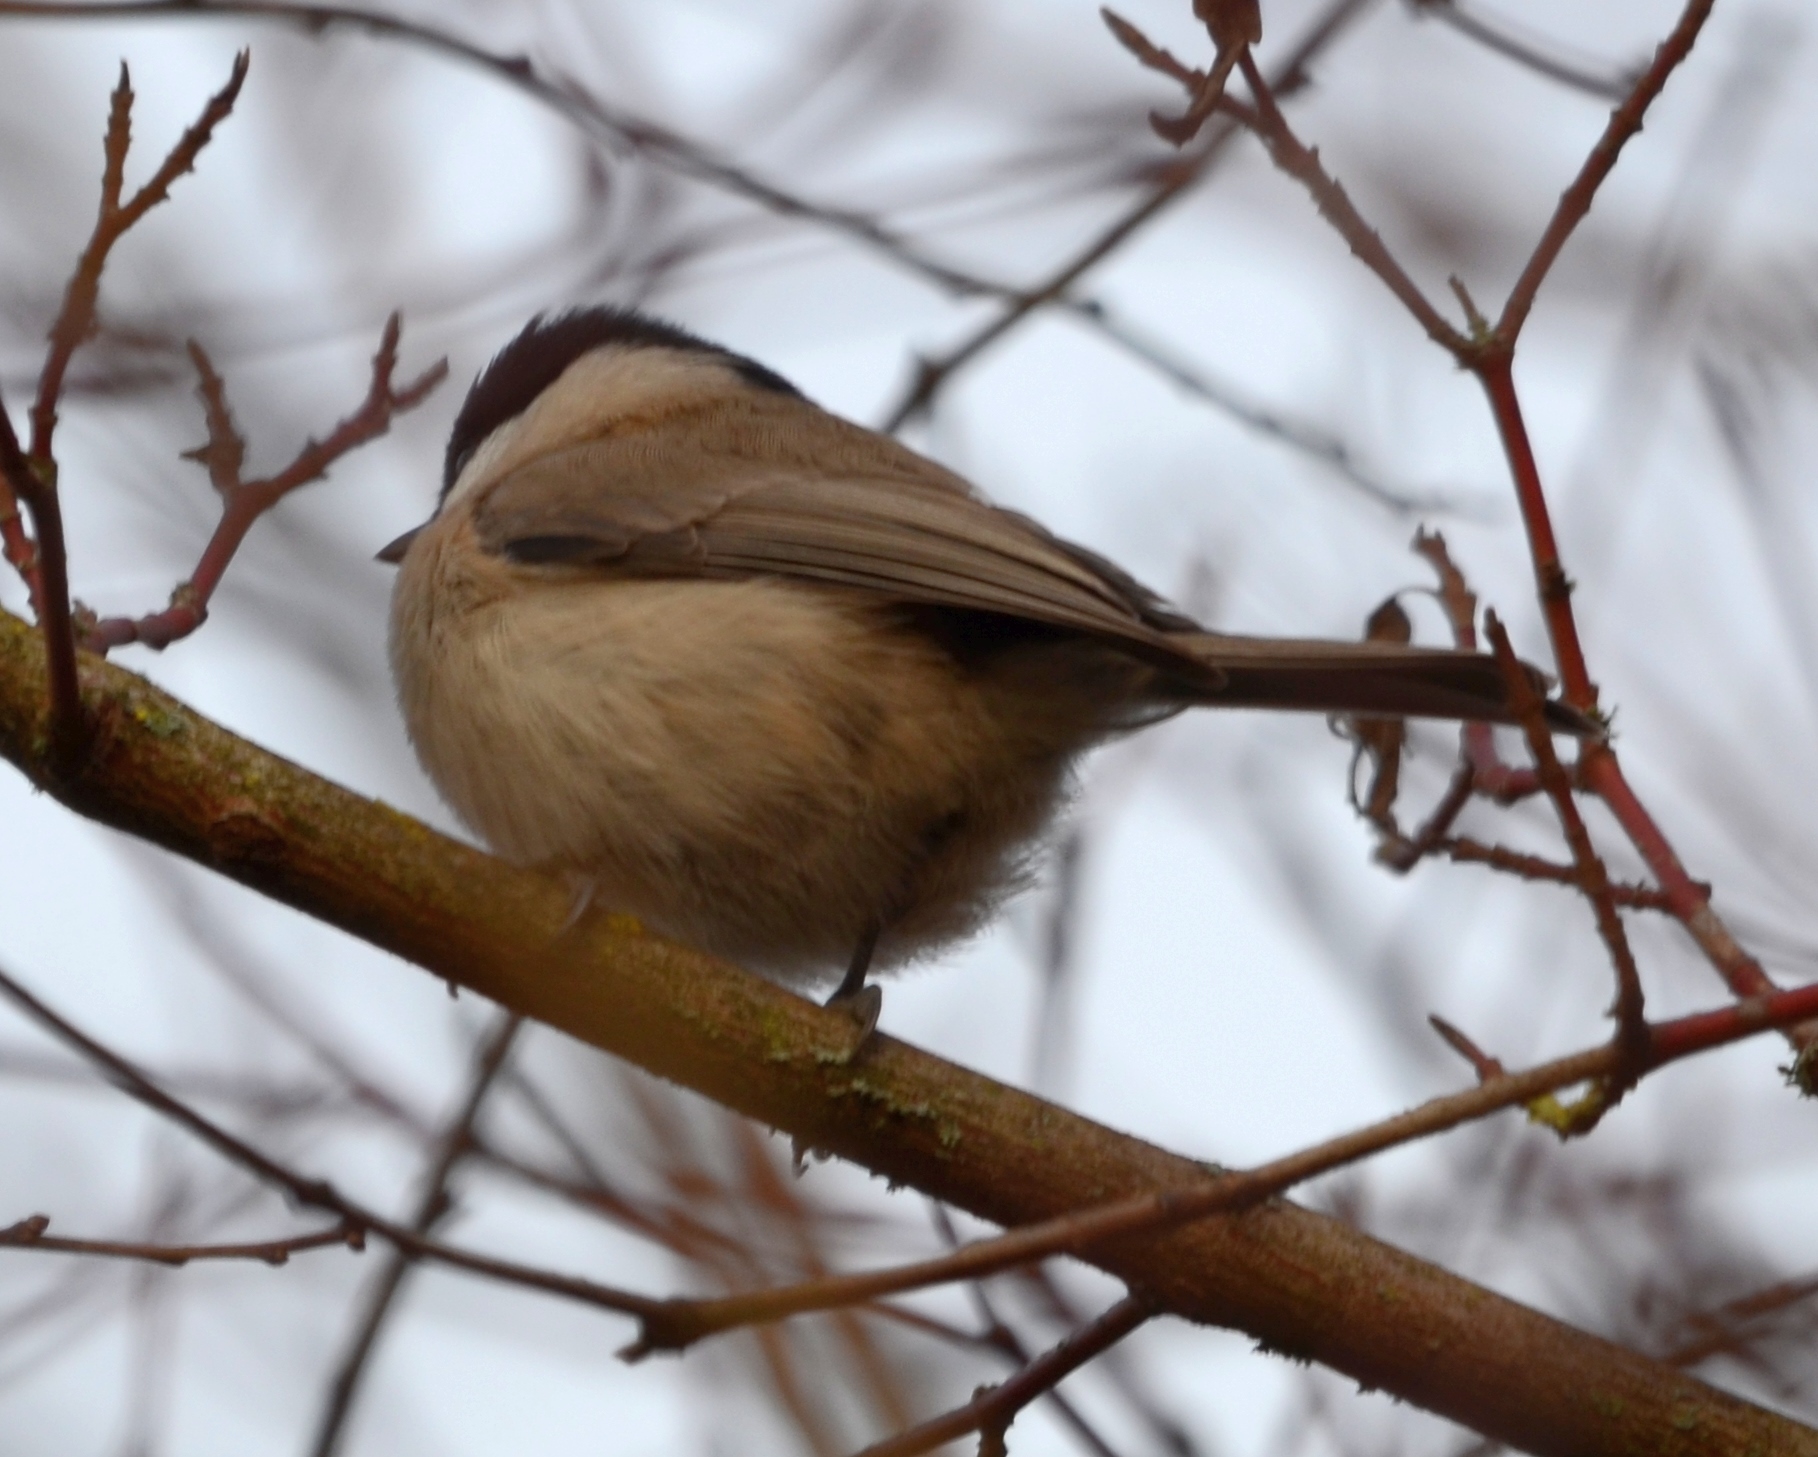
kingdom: Animalia
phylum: Chordata
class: Aves
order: Passeriformes
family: Paridae
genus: Poecile
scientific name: Poecile palustris
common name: Marsh tit
